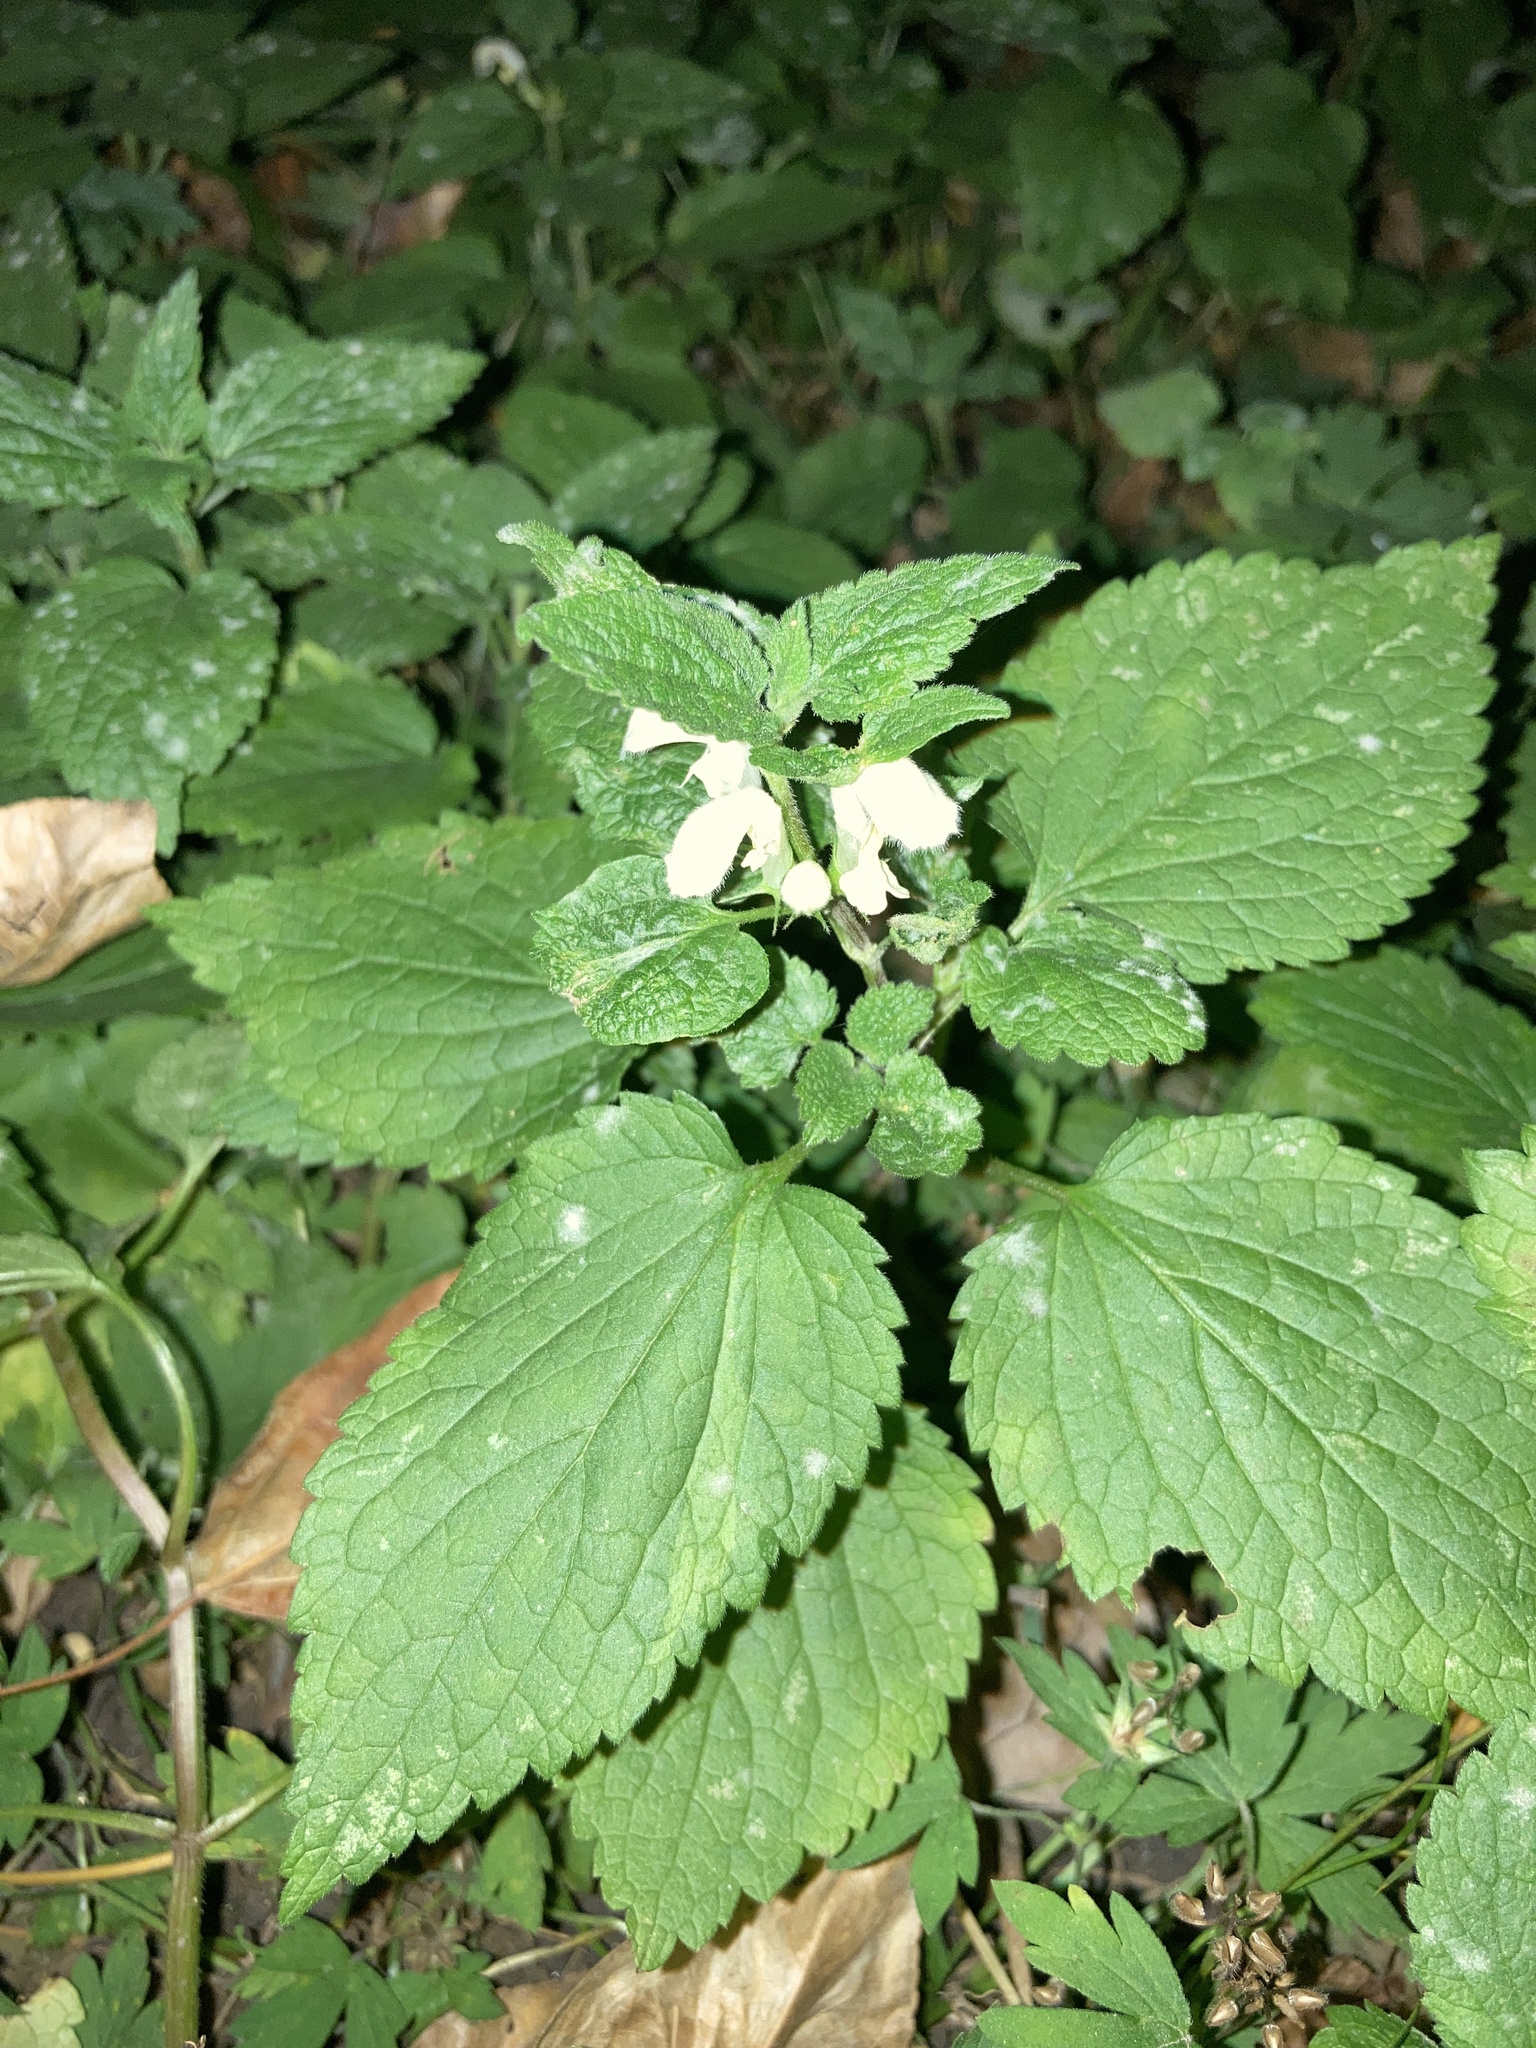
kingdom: Plantae
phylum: Tracheophyta
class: Magnoliopsida
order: Lamiales
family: Lamiaceae
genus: Lamium
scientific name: Lamium album
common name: White dead-nettle
